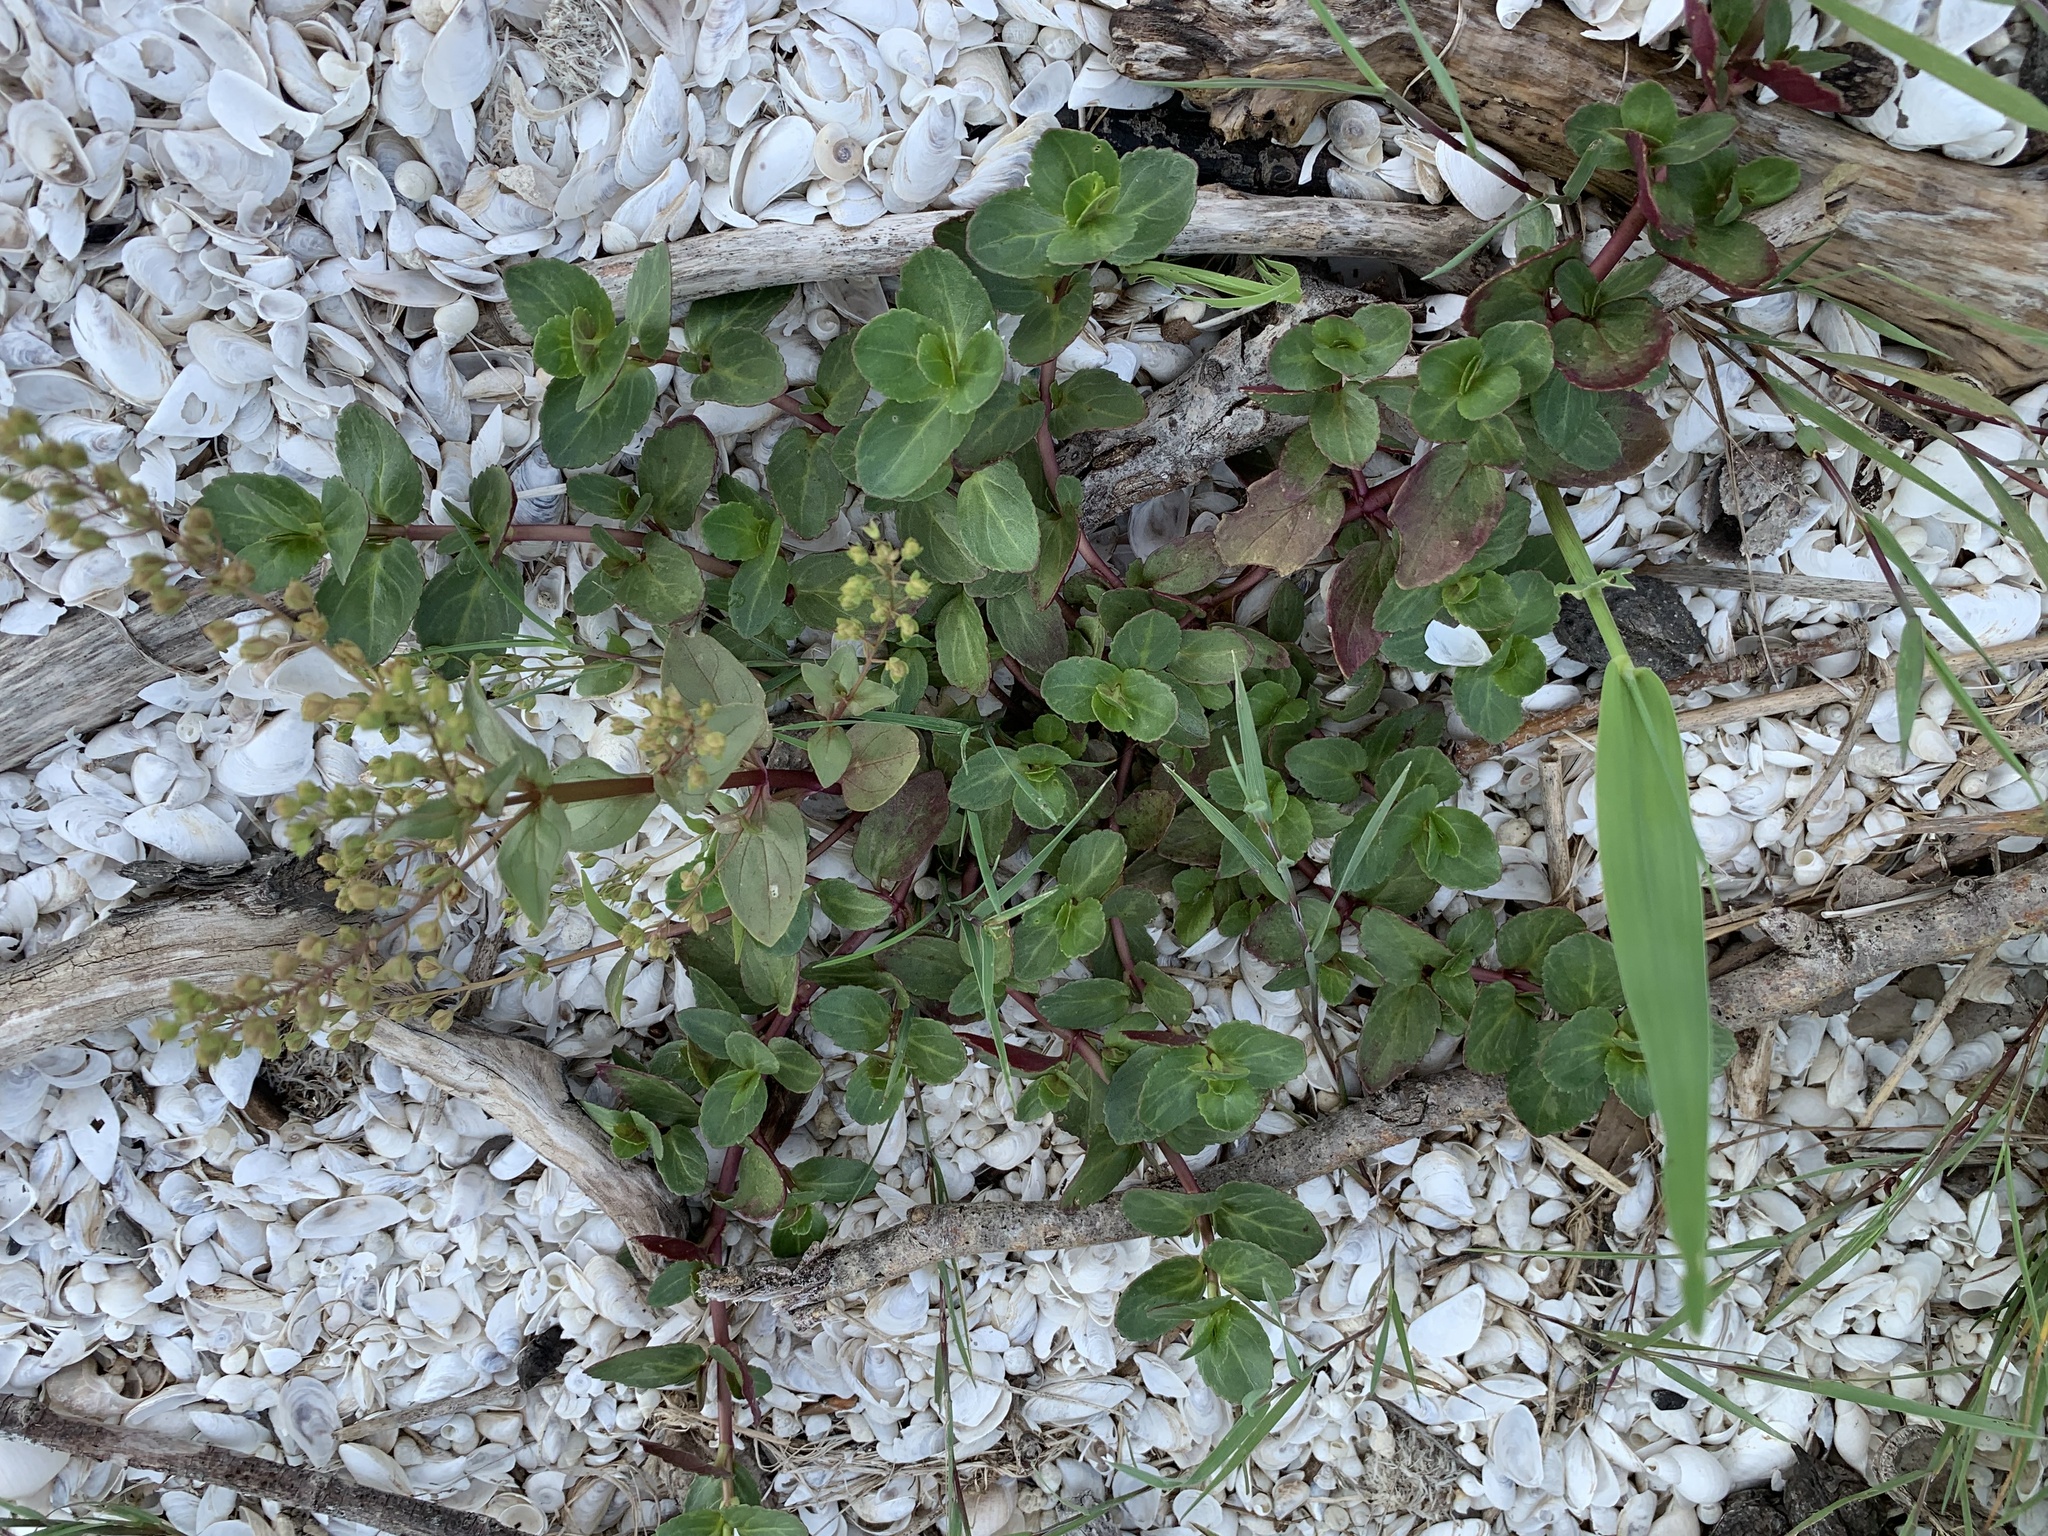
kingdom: Plantae
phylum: Tracheophyta
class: Magnoliopsida
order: Lamiales
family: Plantaginaceae
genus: Veronica
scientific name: Veronica anagallis-aquatica
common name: Water speedwell
